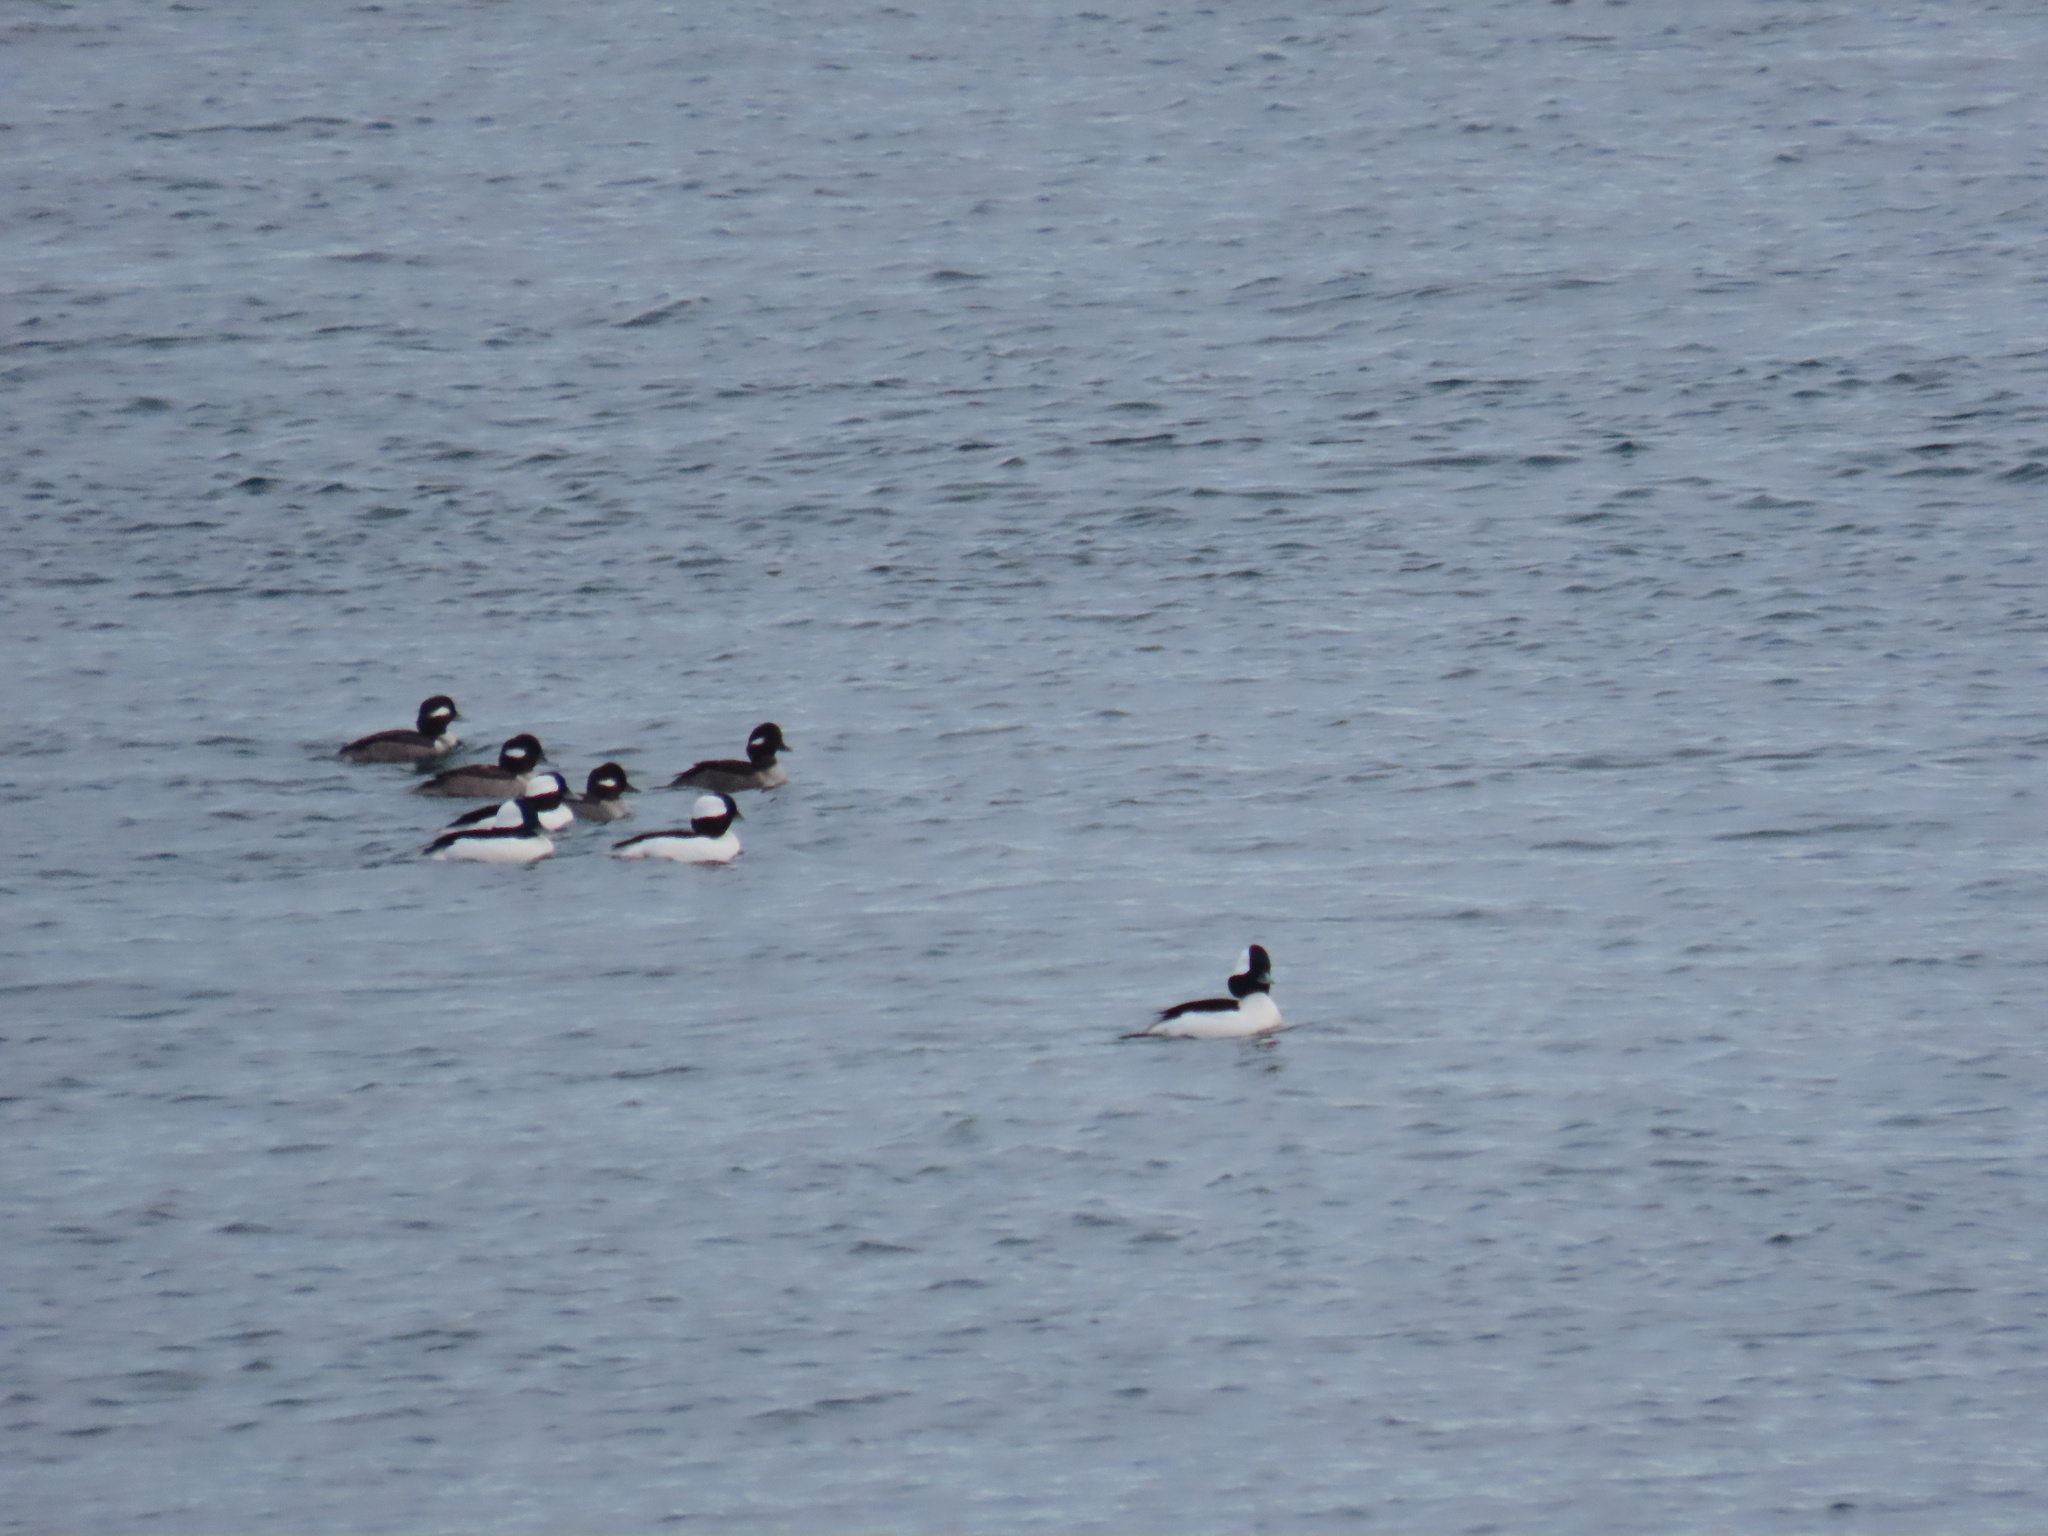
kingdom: Animalia
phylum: Chordata
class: Aves
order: Anseriformes
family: Anatidae
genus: Bucephala
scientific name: Bucephala albeola
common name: Bufflehead
